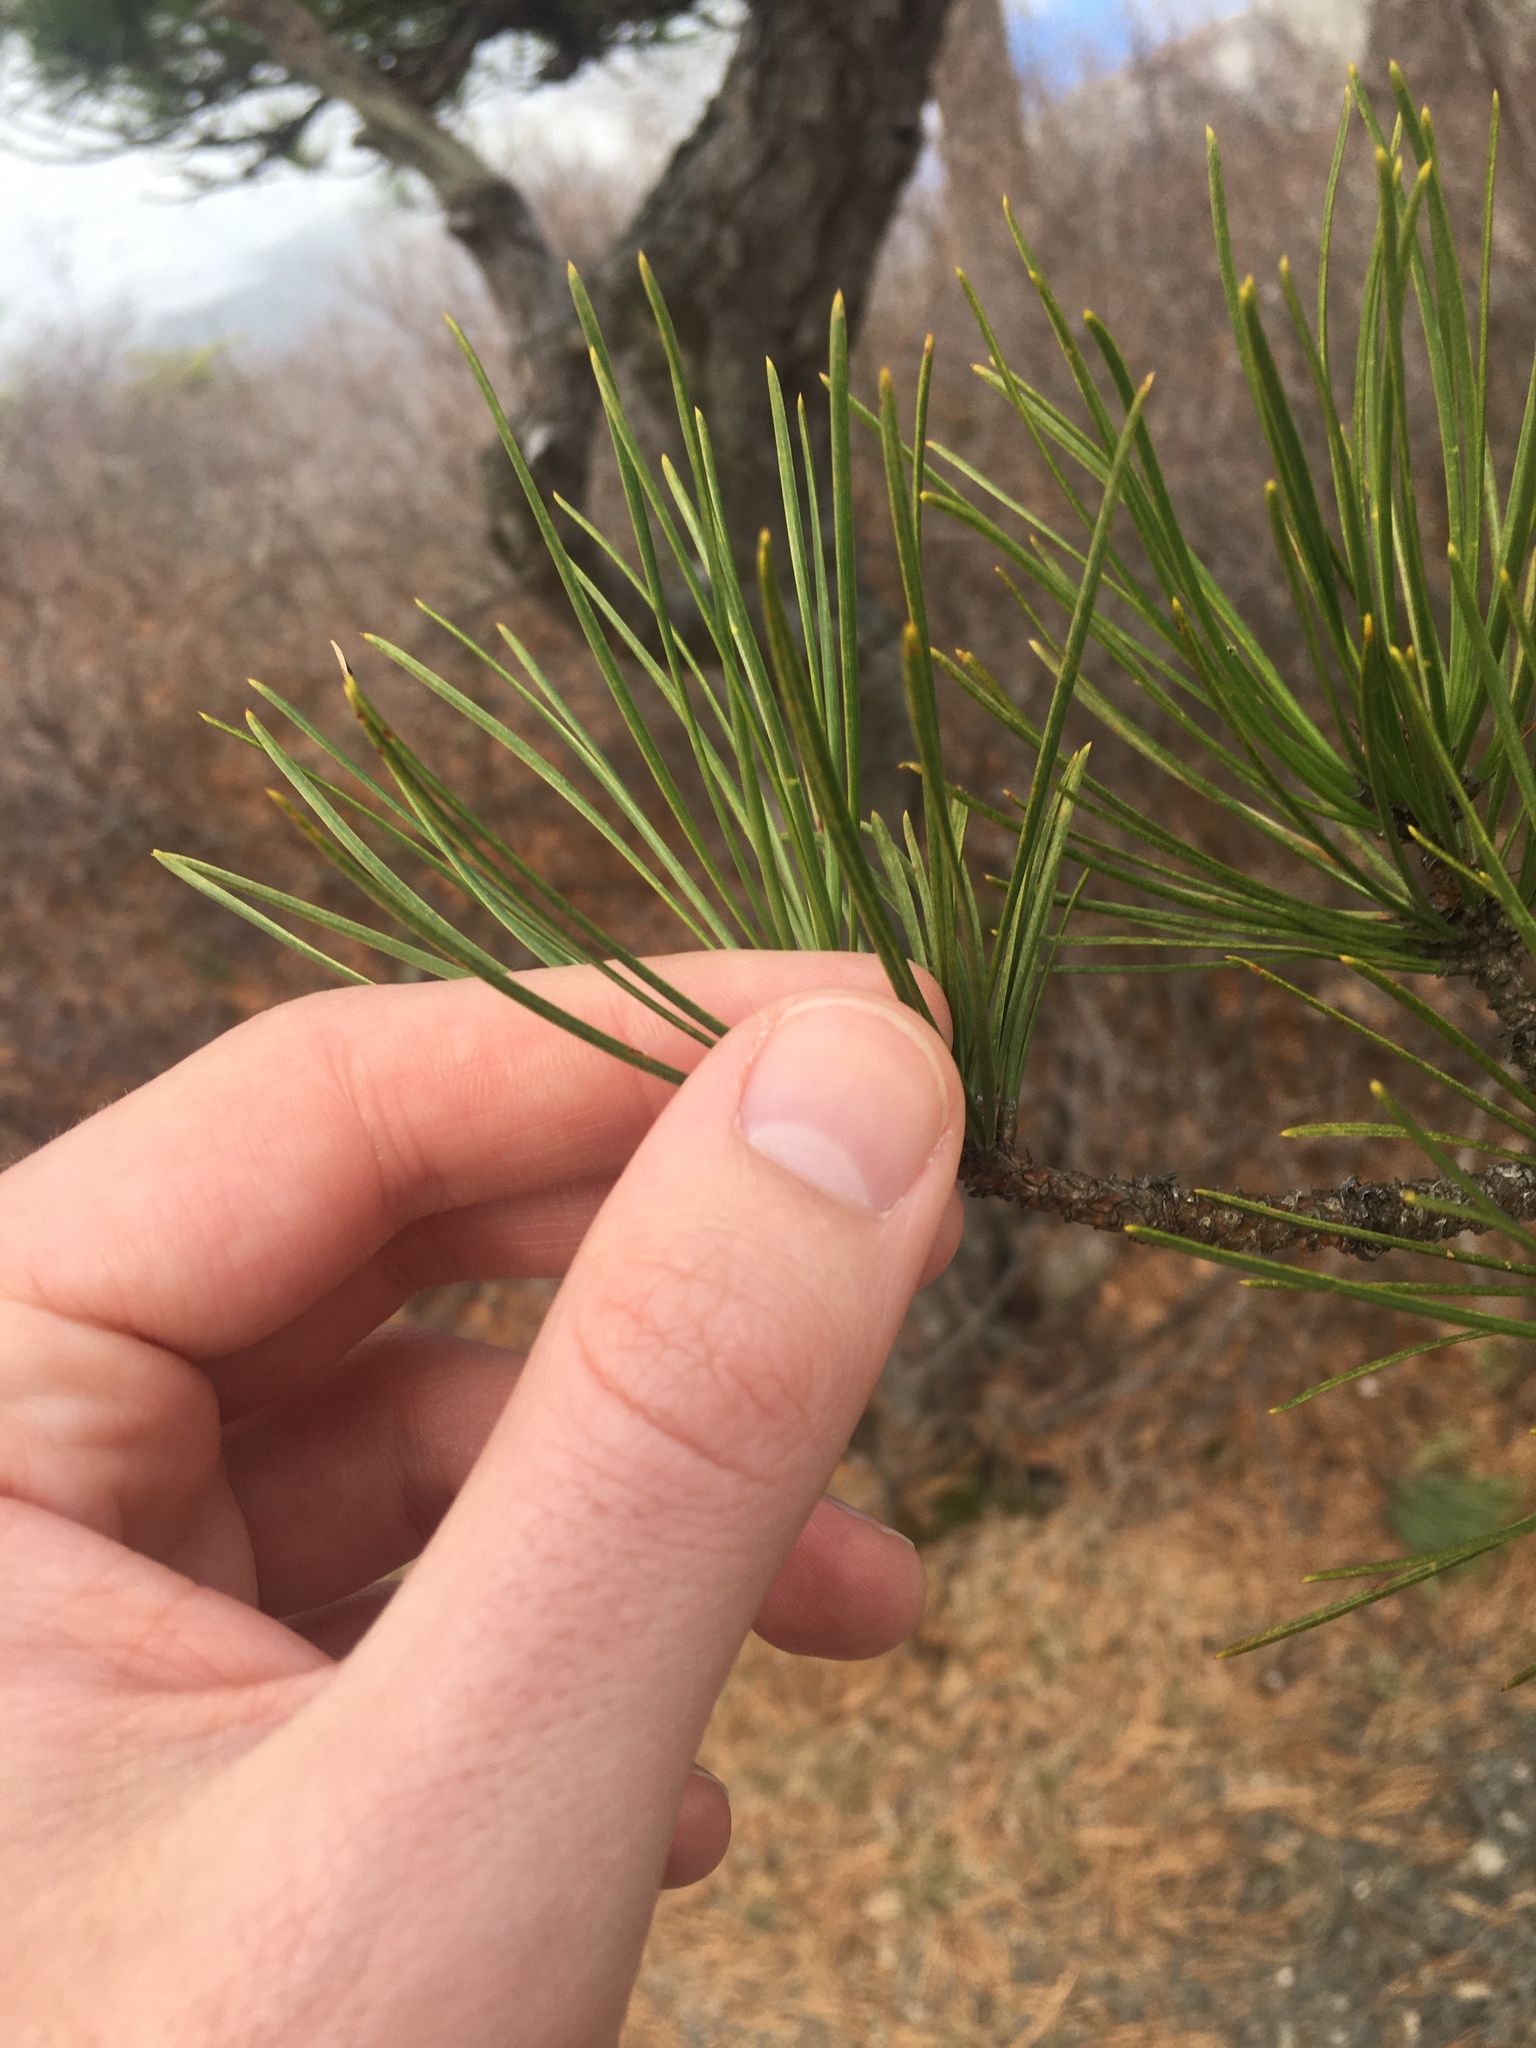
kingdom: Plantae
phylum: Tracheophyta
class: Pinopsida
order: Pinales
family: Pinaceae
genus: Pinus
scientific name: Pinus rigida
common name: Pitch pine
